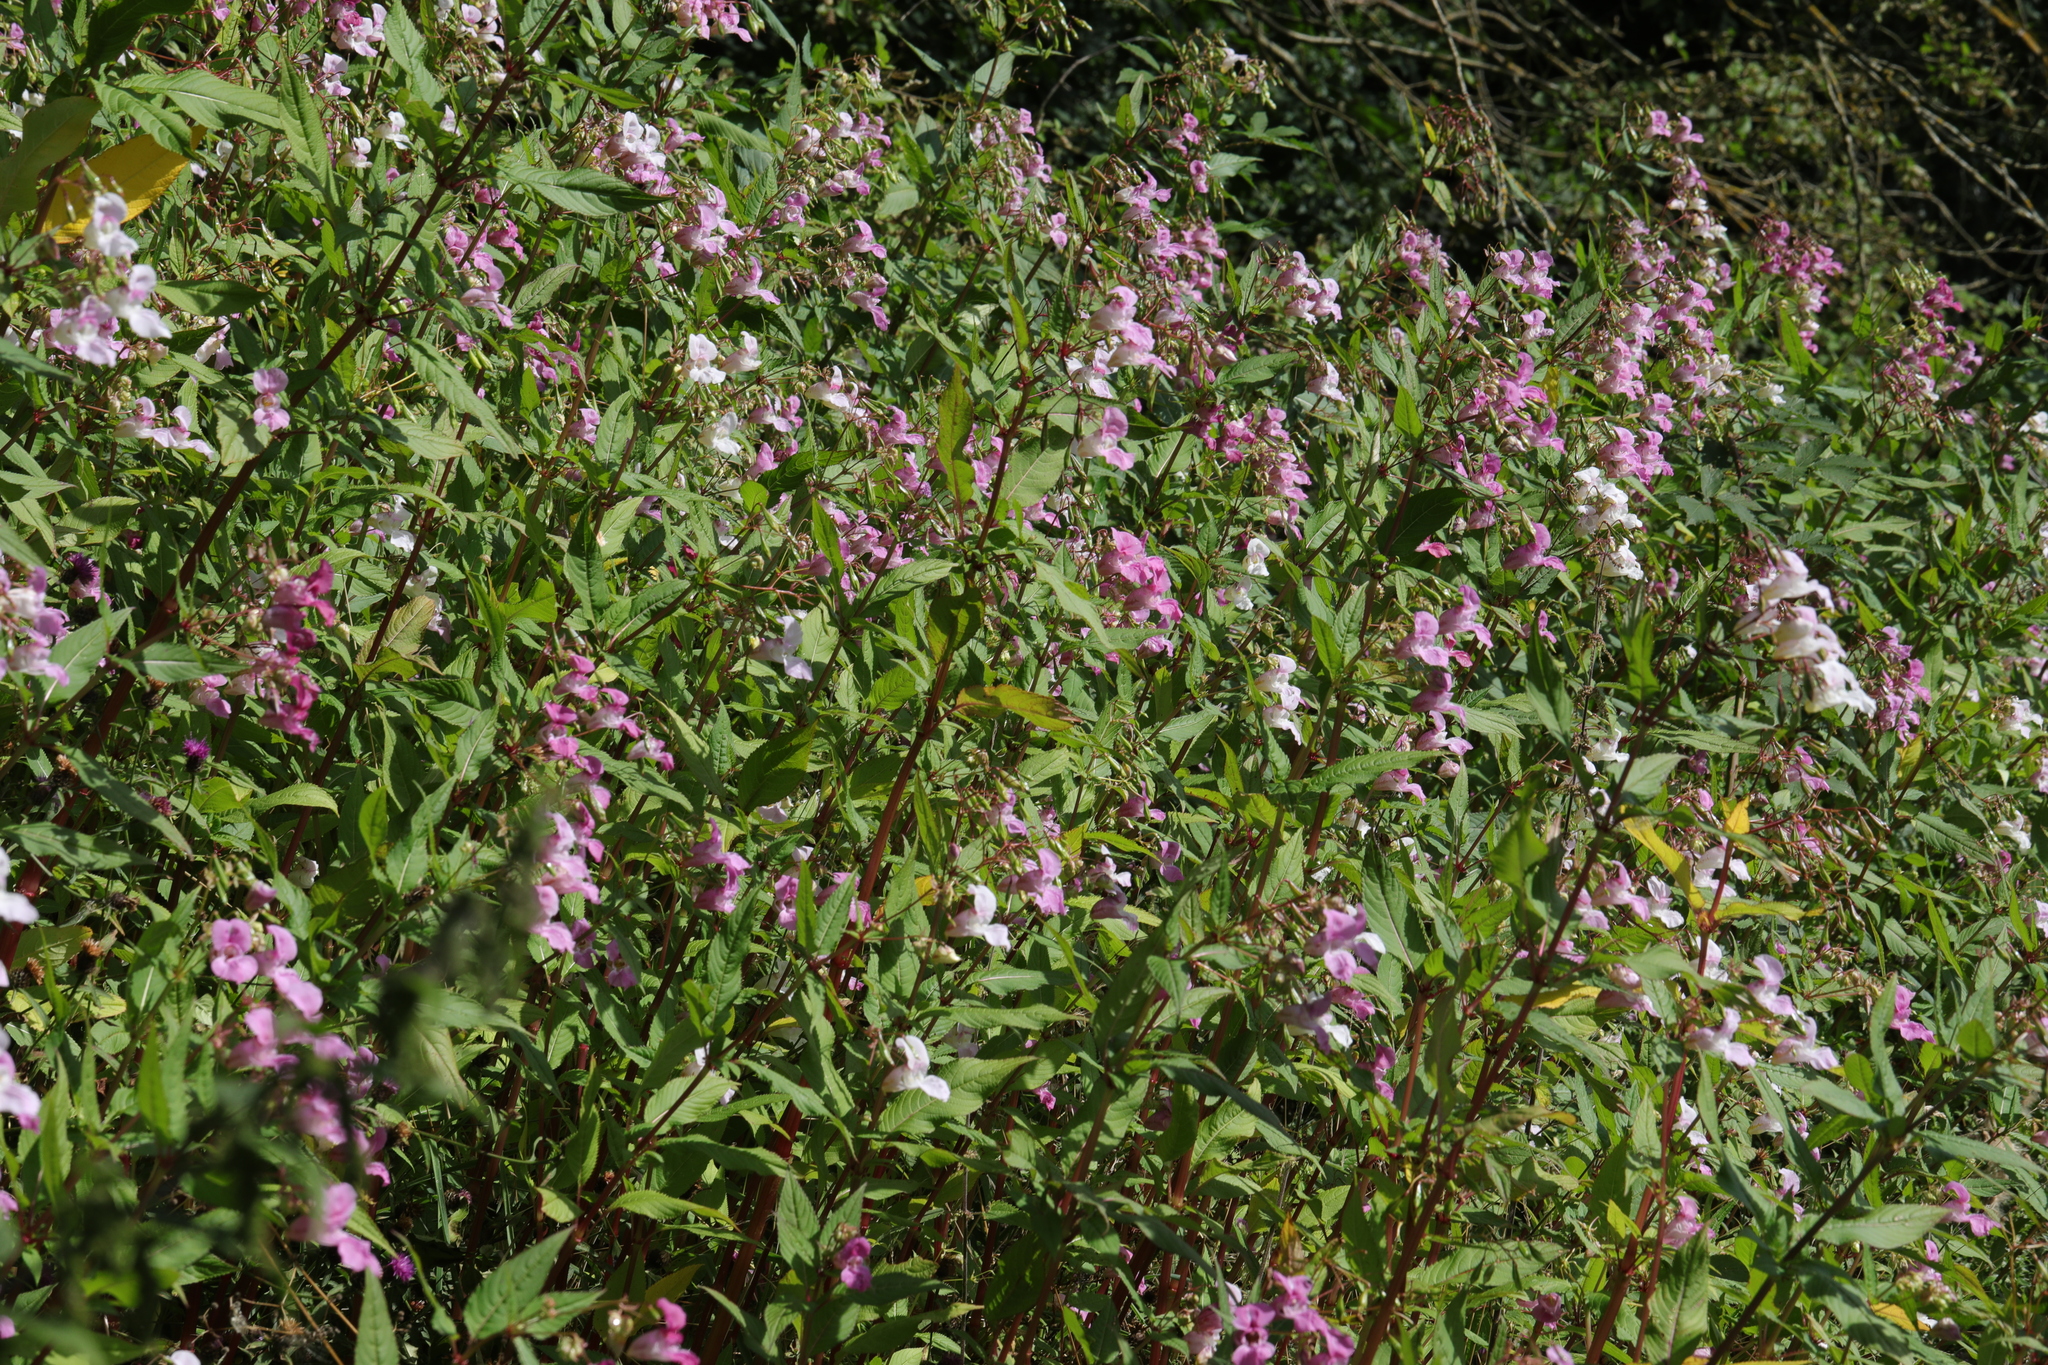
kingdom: Plantae
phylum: Tracheophyta
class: Magnoliopsida
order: Ericales
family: Balsaminaceae
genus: Impatiens
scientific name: Impatiens glandulifera
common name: Himalayan balsam
